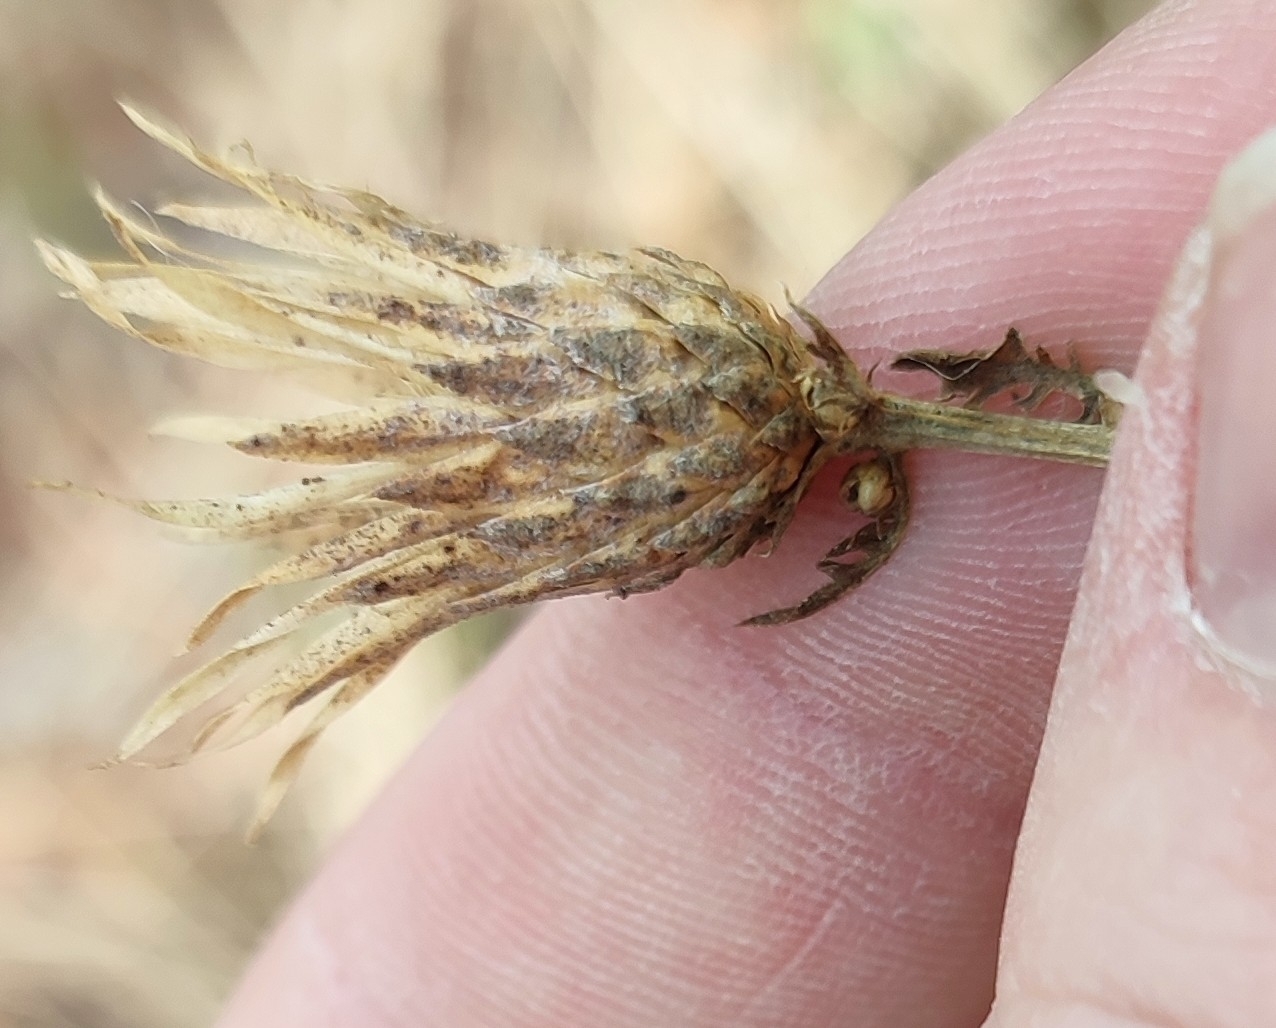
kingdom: Plantae
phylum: Tracheophyta
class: Magnoliopsida
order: Asterales
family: Asteraceae
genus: Serratula
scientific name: Serratula coronata
